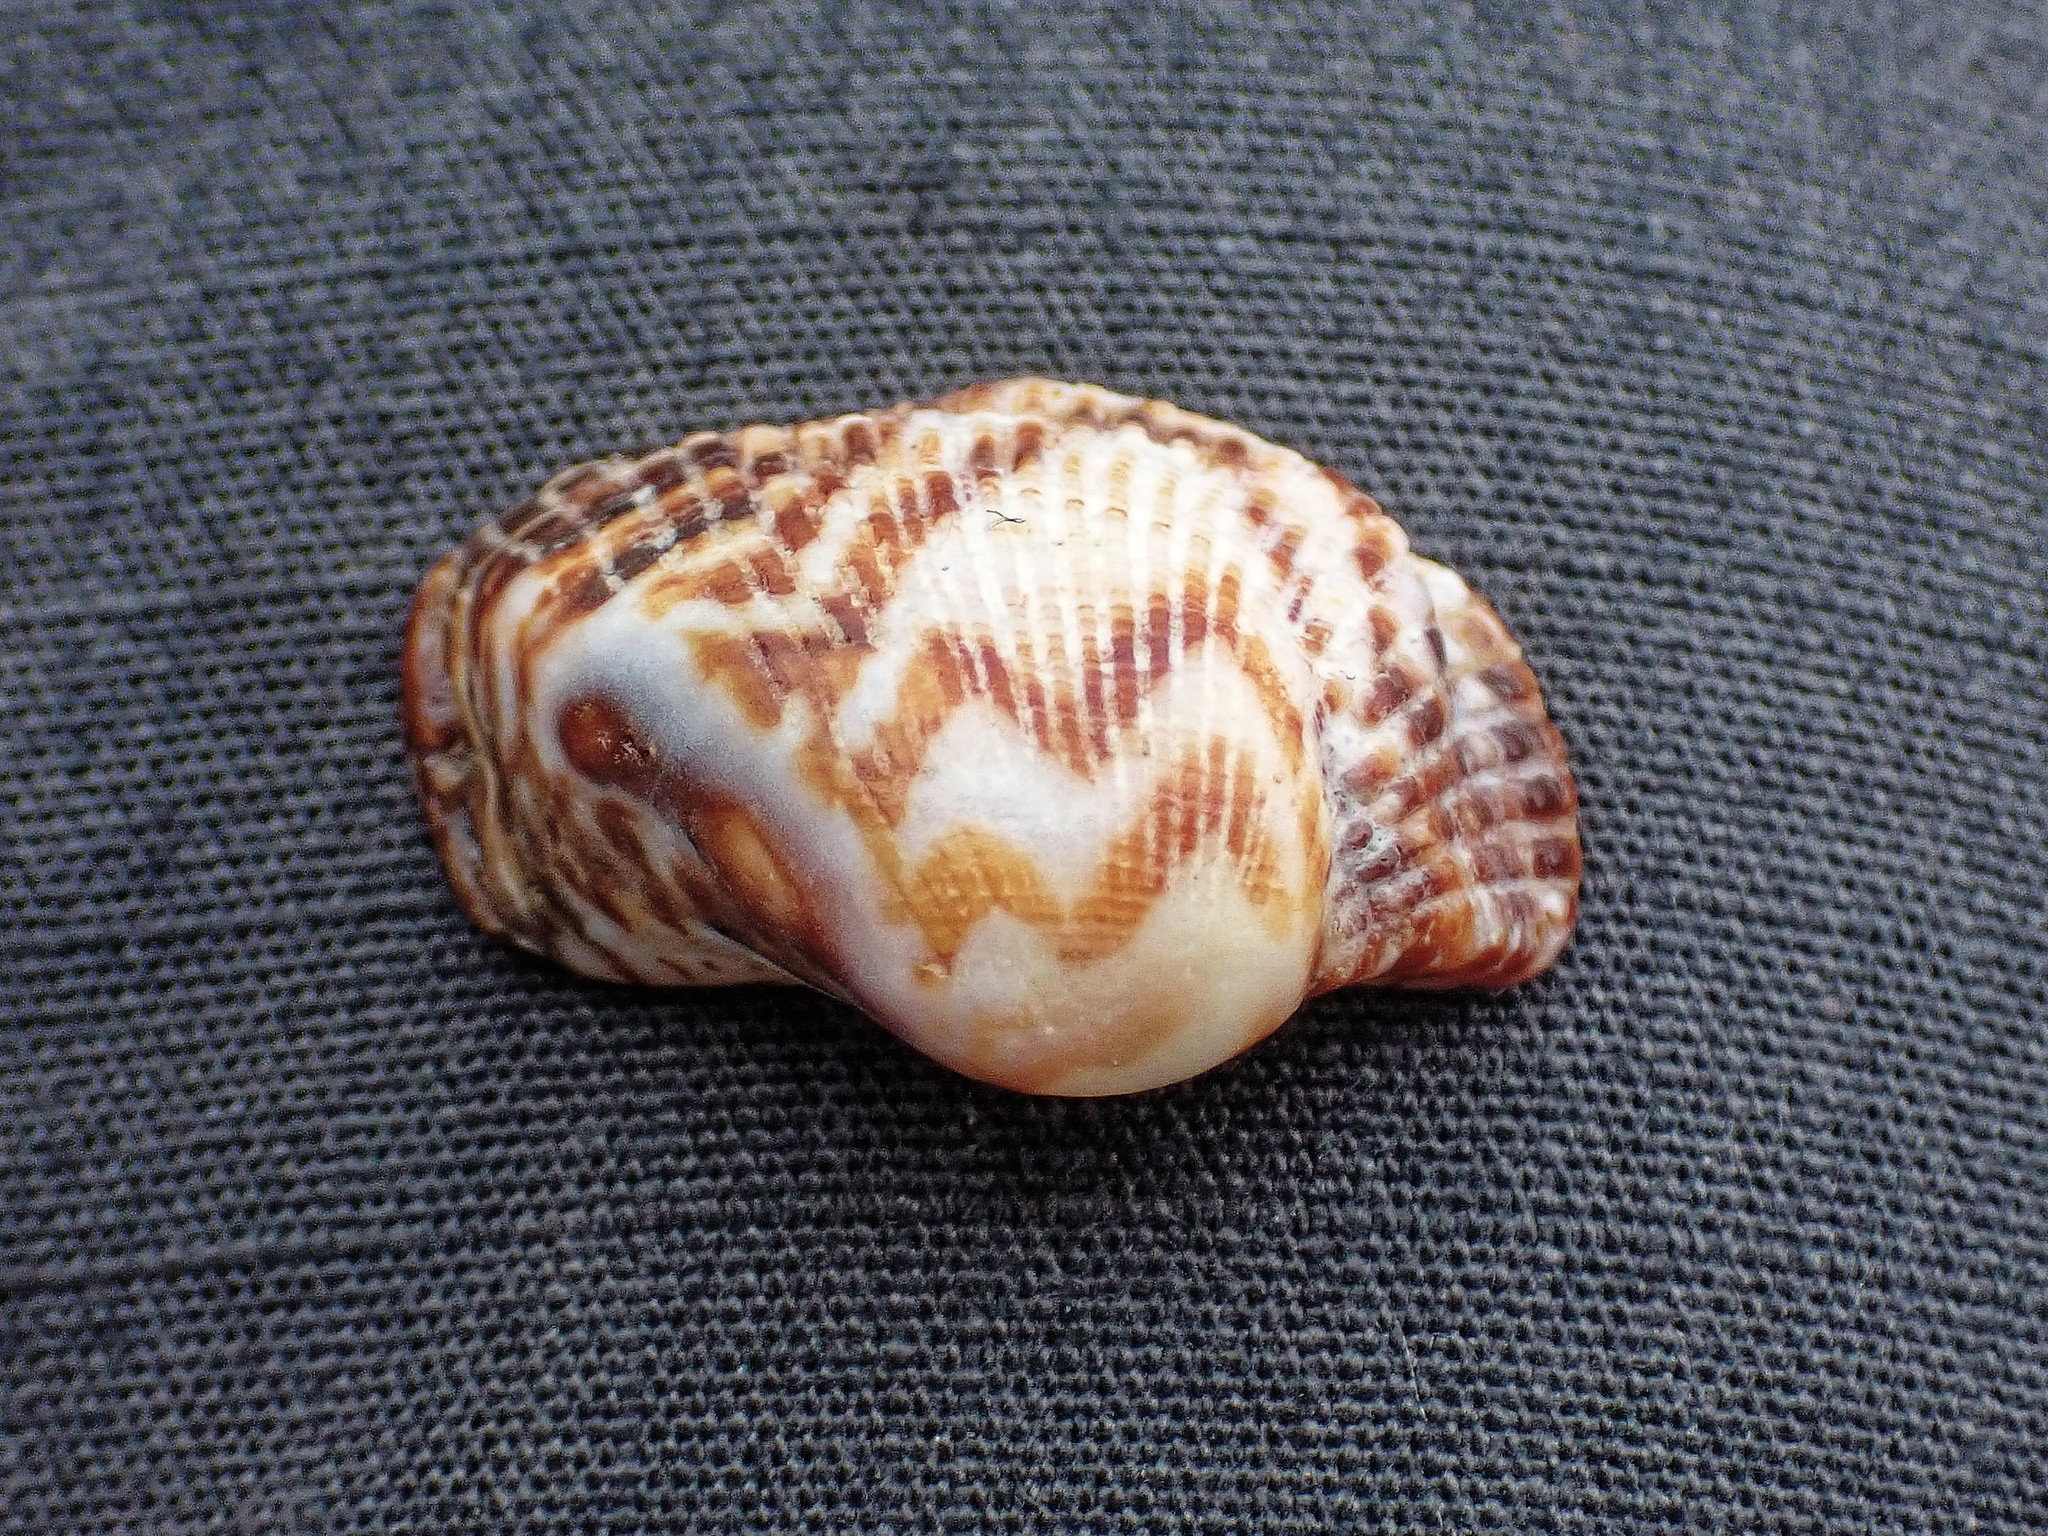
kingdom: Animalia
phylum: Mollusca
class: Bivalvia
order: Arcida
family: Arcidae
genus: Arca
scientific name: Arca noae
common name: Noah's arch
